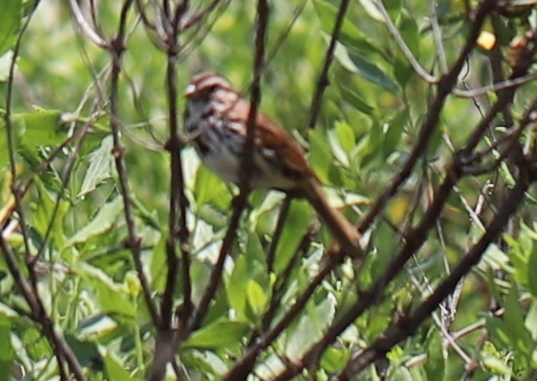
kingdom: Animalia
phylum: Chordata
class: Aves
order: Passeriformes
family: Passerellidae
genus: Melospiza
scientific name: Melospiza melodia
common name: Song sparrow
